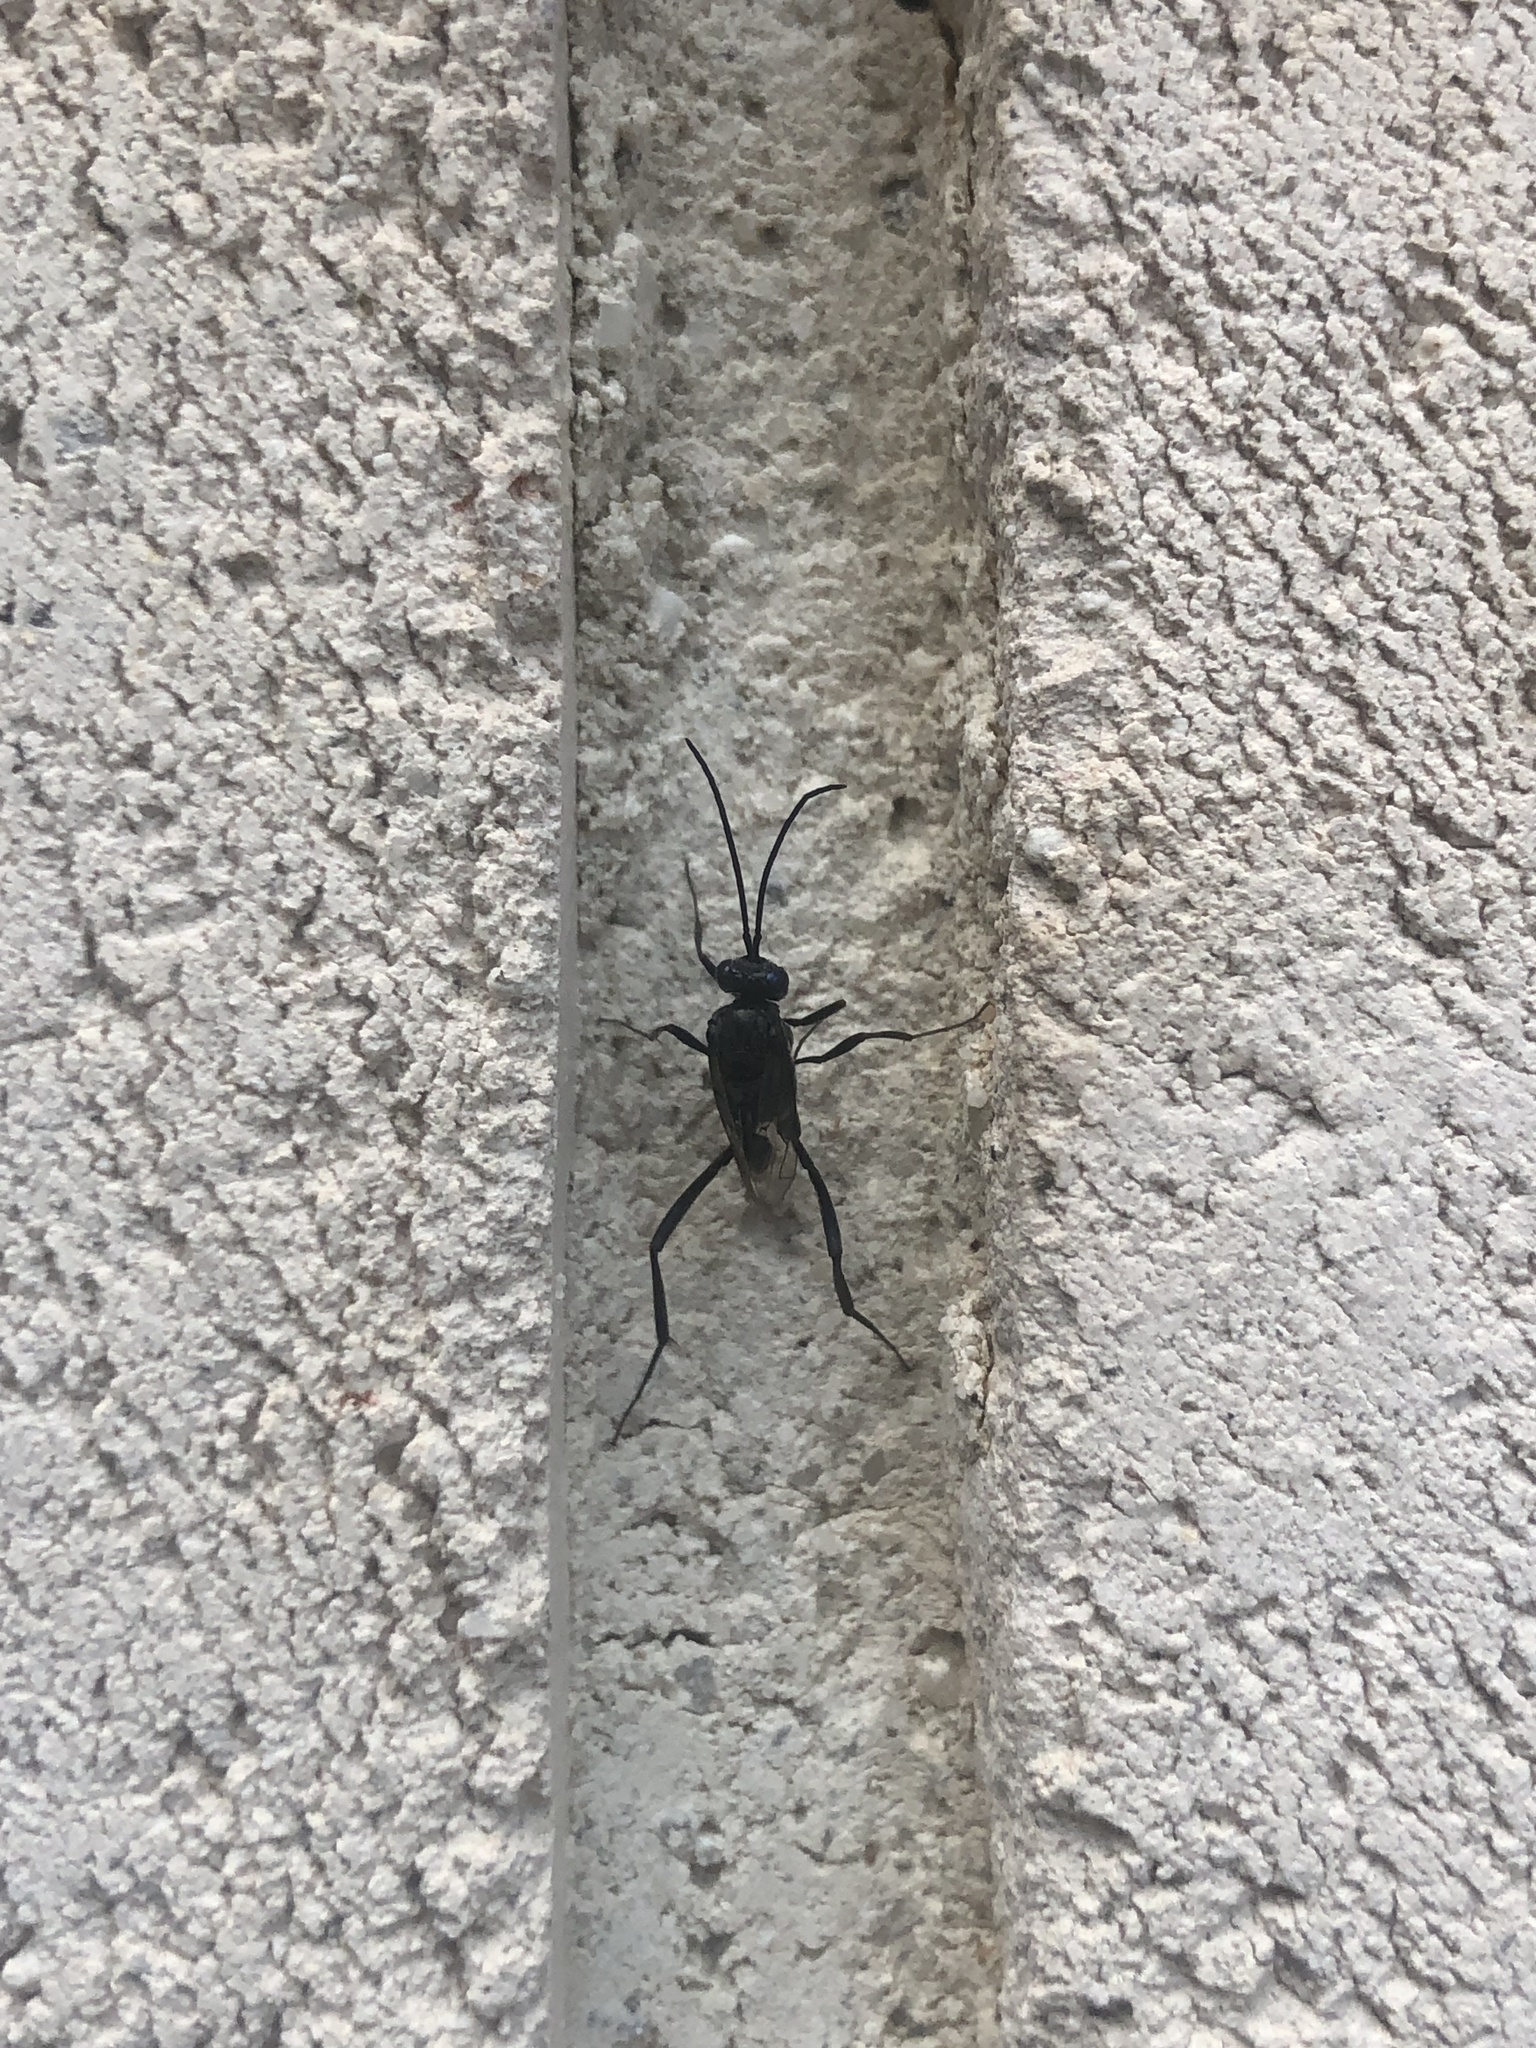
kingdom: Animalia
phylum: Arthropoda
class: Insecta
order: Hymenoptera
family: Evaniidae
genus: Evania
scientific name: Evania appendigaster
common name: Ensign wasp
